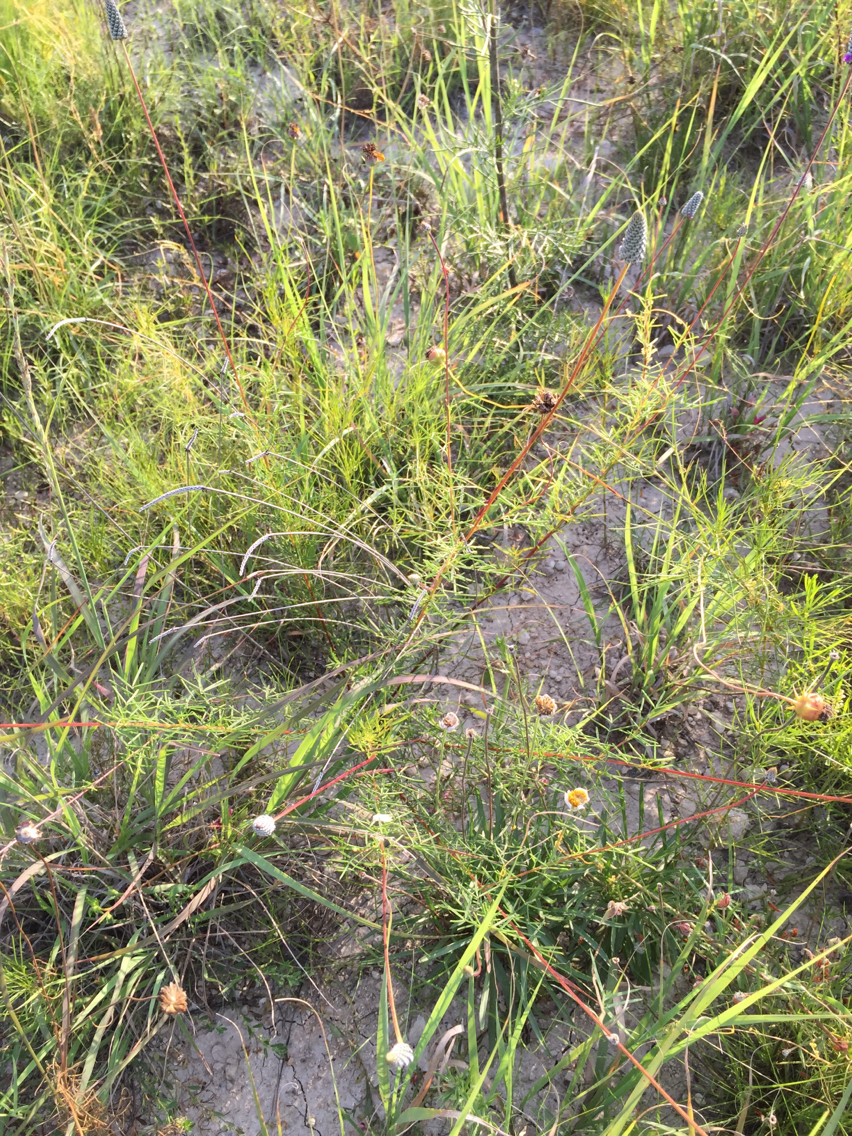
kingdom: Plantae
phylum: Tracheophyta
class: Magnoliopsida
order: Fabales
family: Fabaceae
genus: Dalea
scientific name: Dalea tenuis
